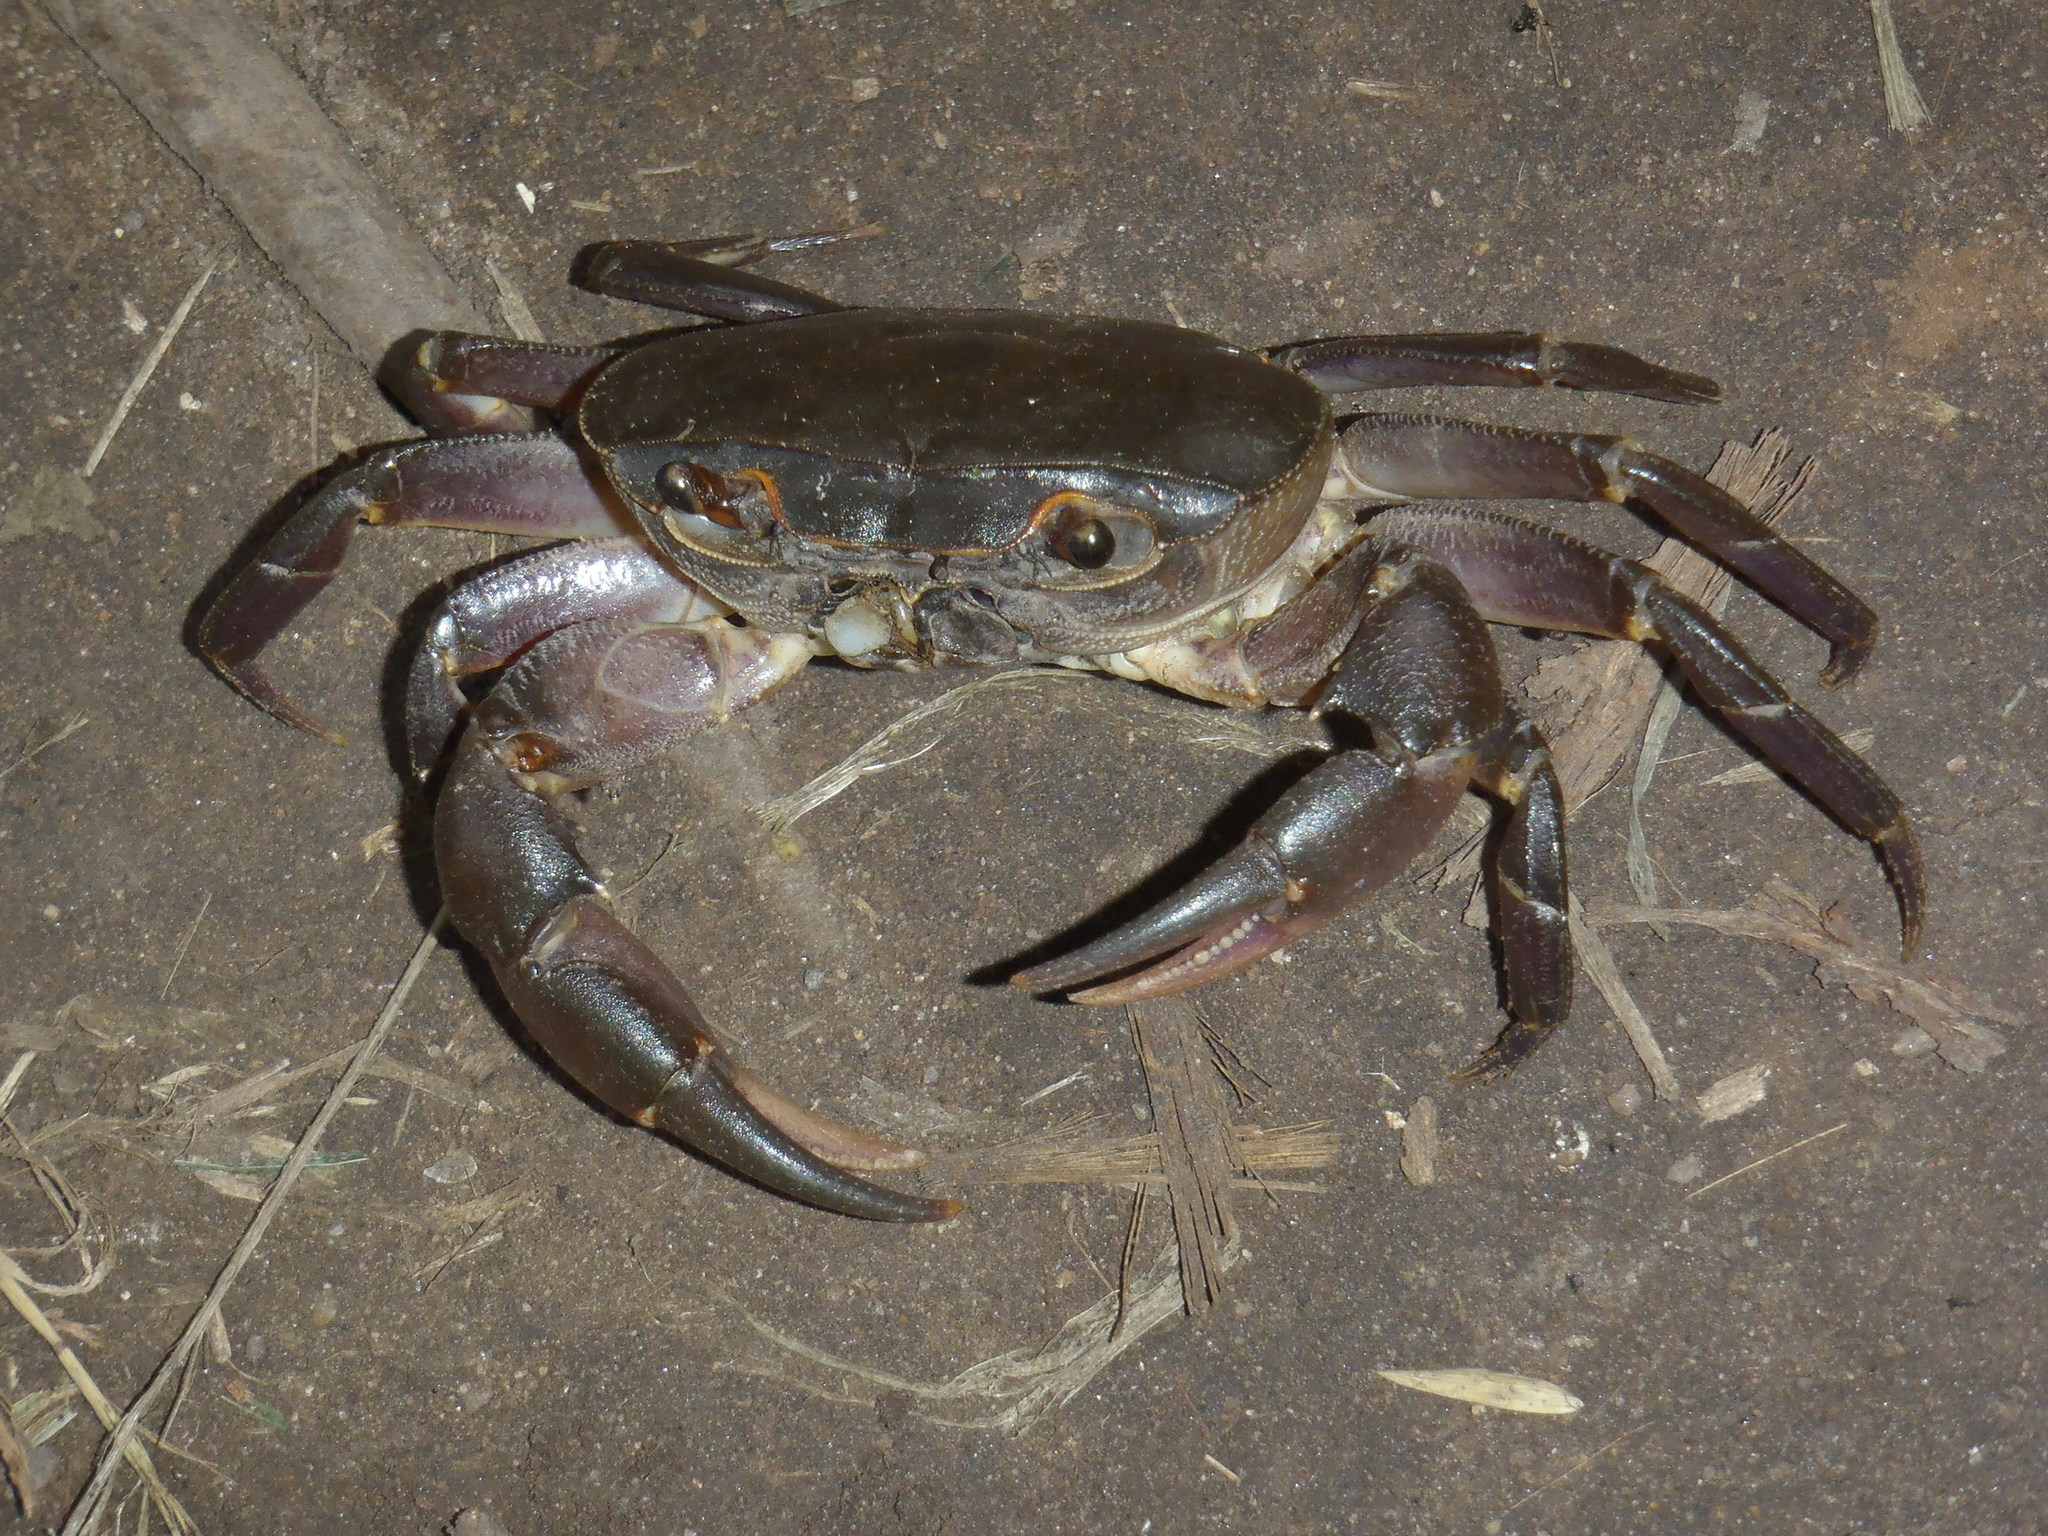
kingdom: Animalia
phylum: Arthropoda
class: Malacostraca
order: Decapoda
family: Potamonautidae
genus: Potamonautes
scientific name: Potamonautes unispinus
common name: Single-spined river crab
